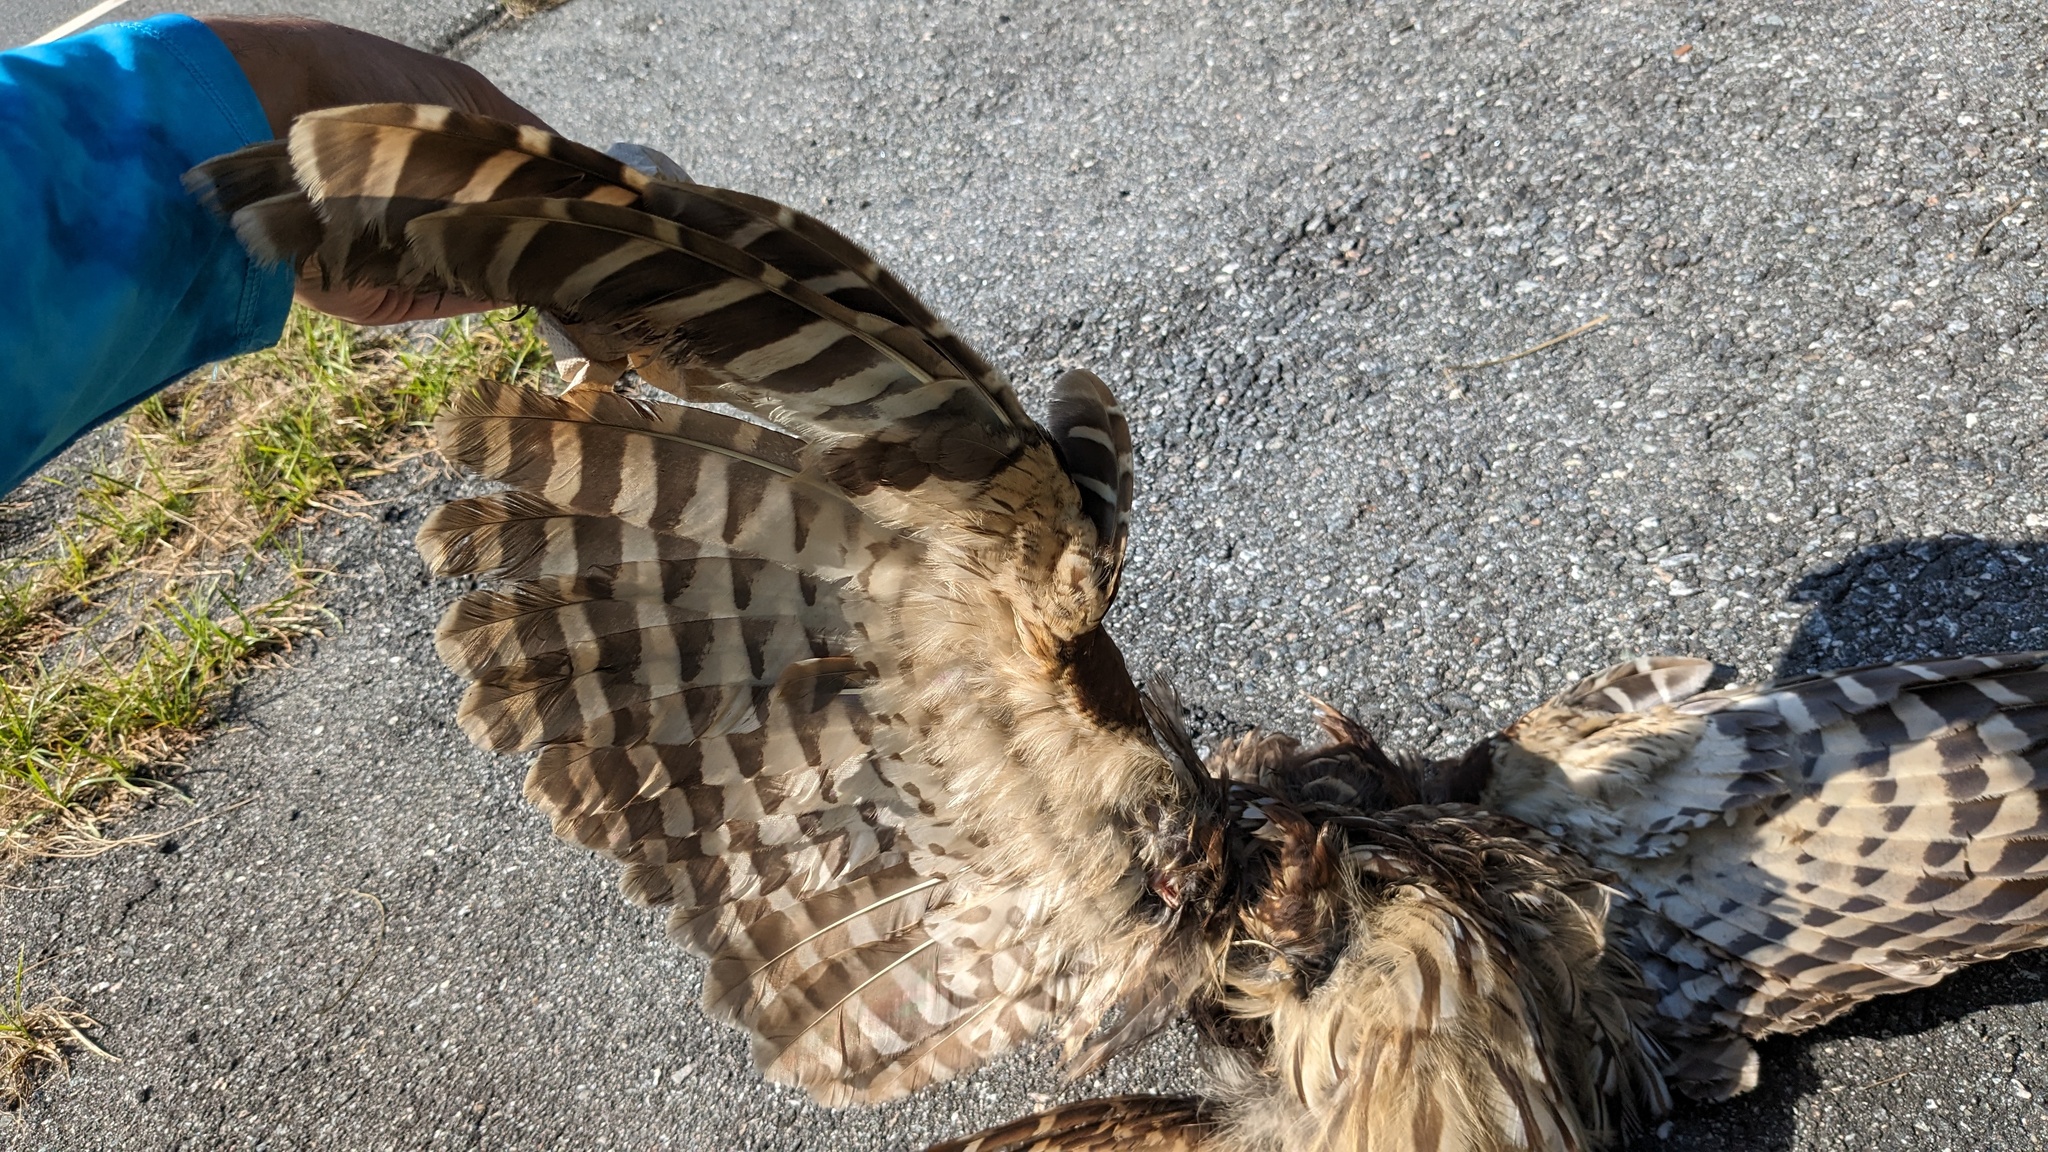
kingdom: Animalia
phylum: Chordata
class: Aves
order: Strigiformes
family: Strigidae
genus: Strix
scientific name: Strix varia
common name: Barred owl
